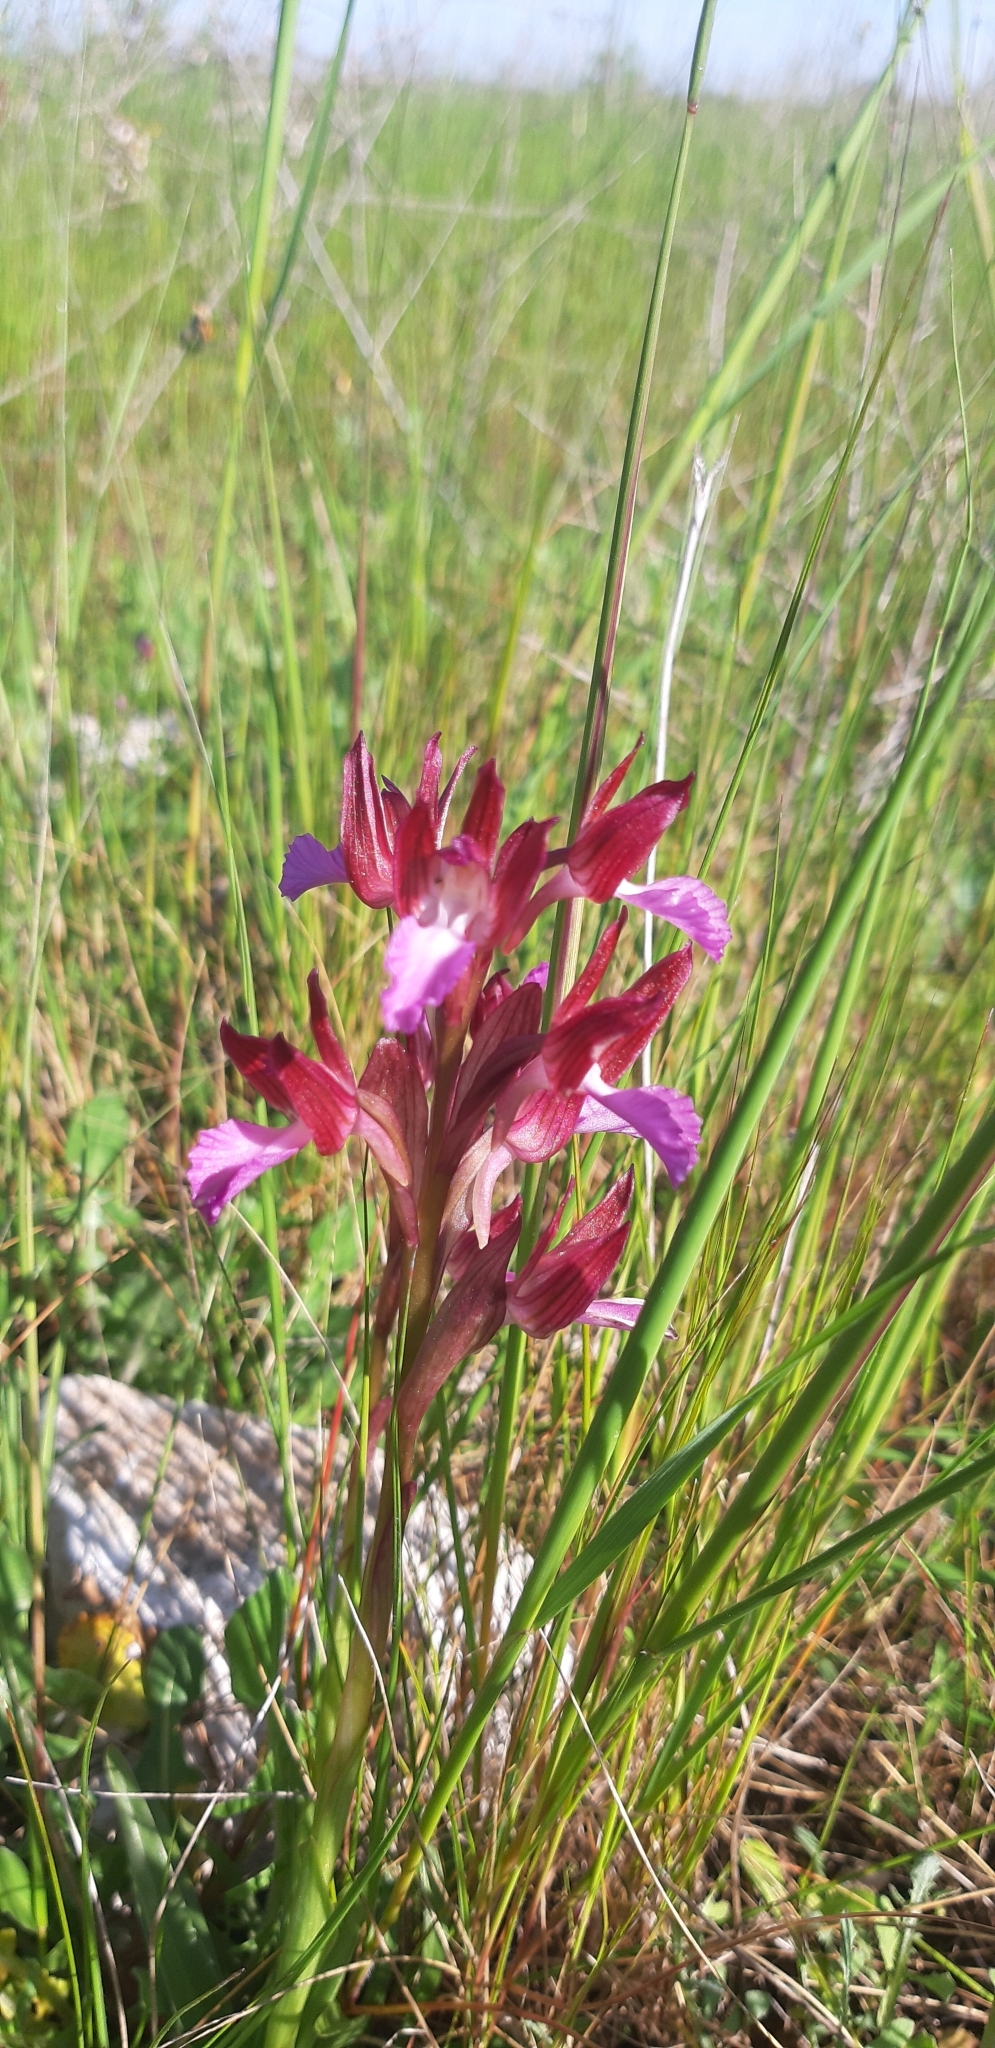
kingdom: Plantae
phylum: Tracheophyta
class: Liliopsida
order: Asparagales
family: Orchidaceae
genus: Anacamptis
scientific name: Anacamptis papilionacea
